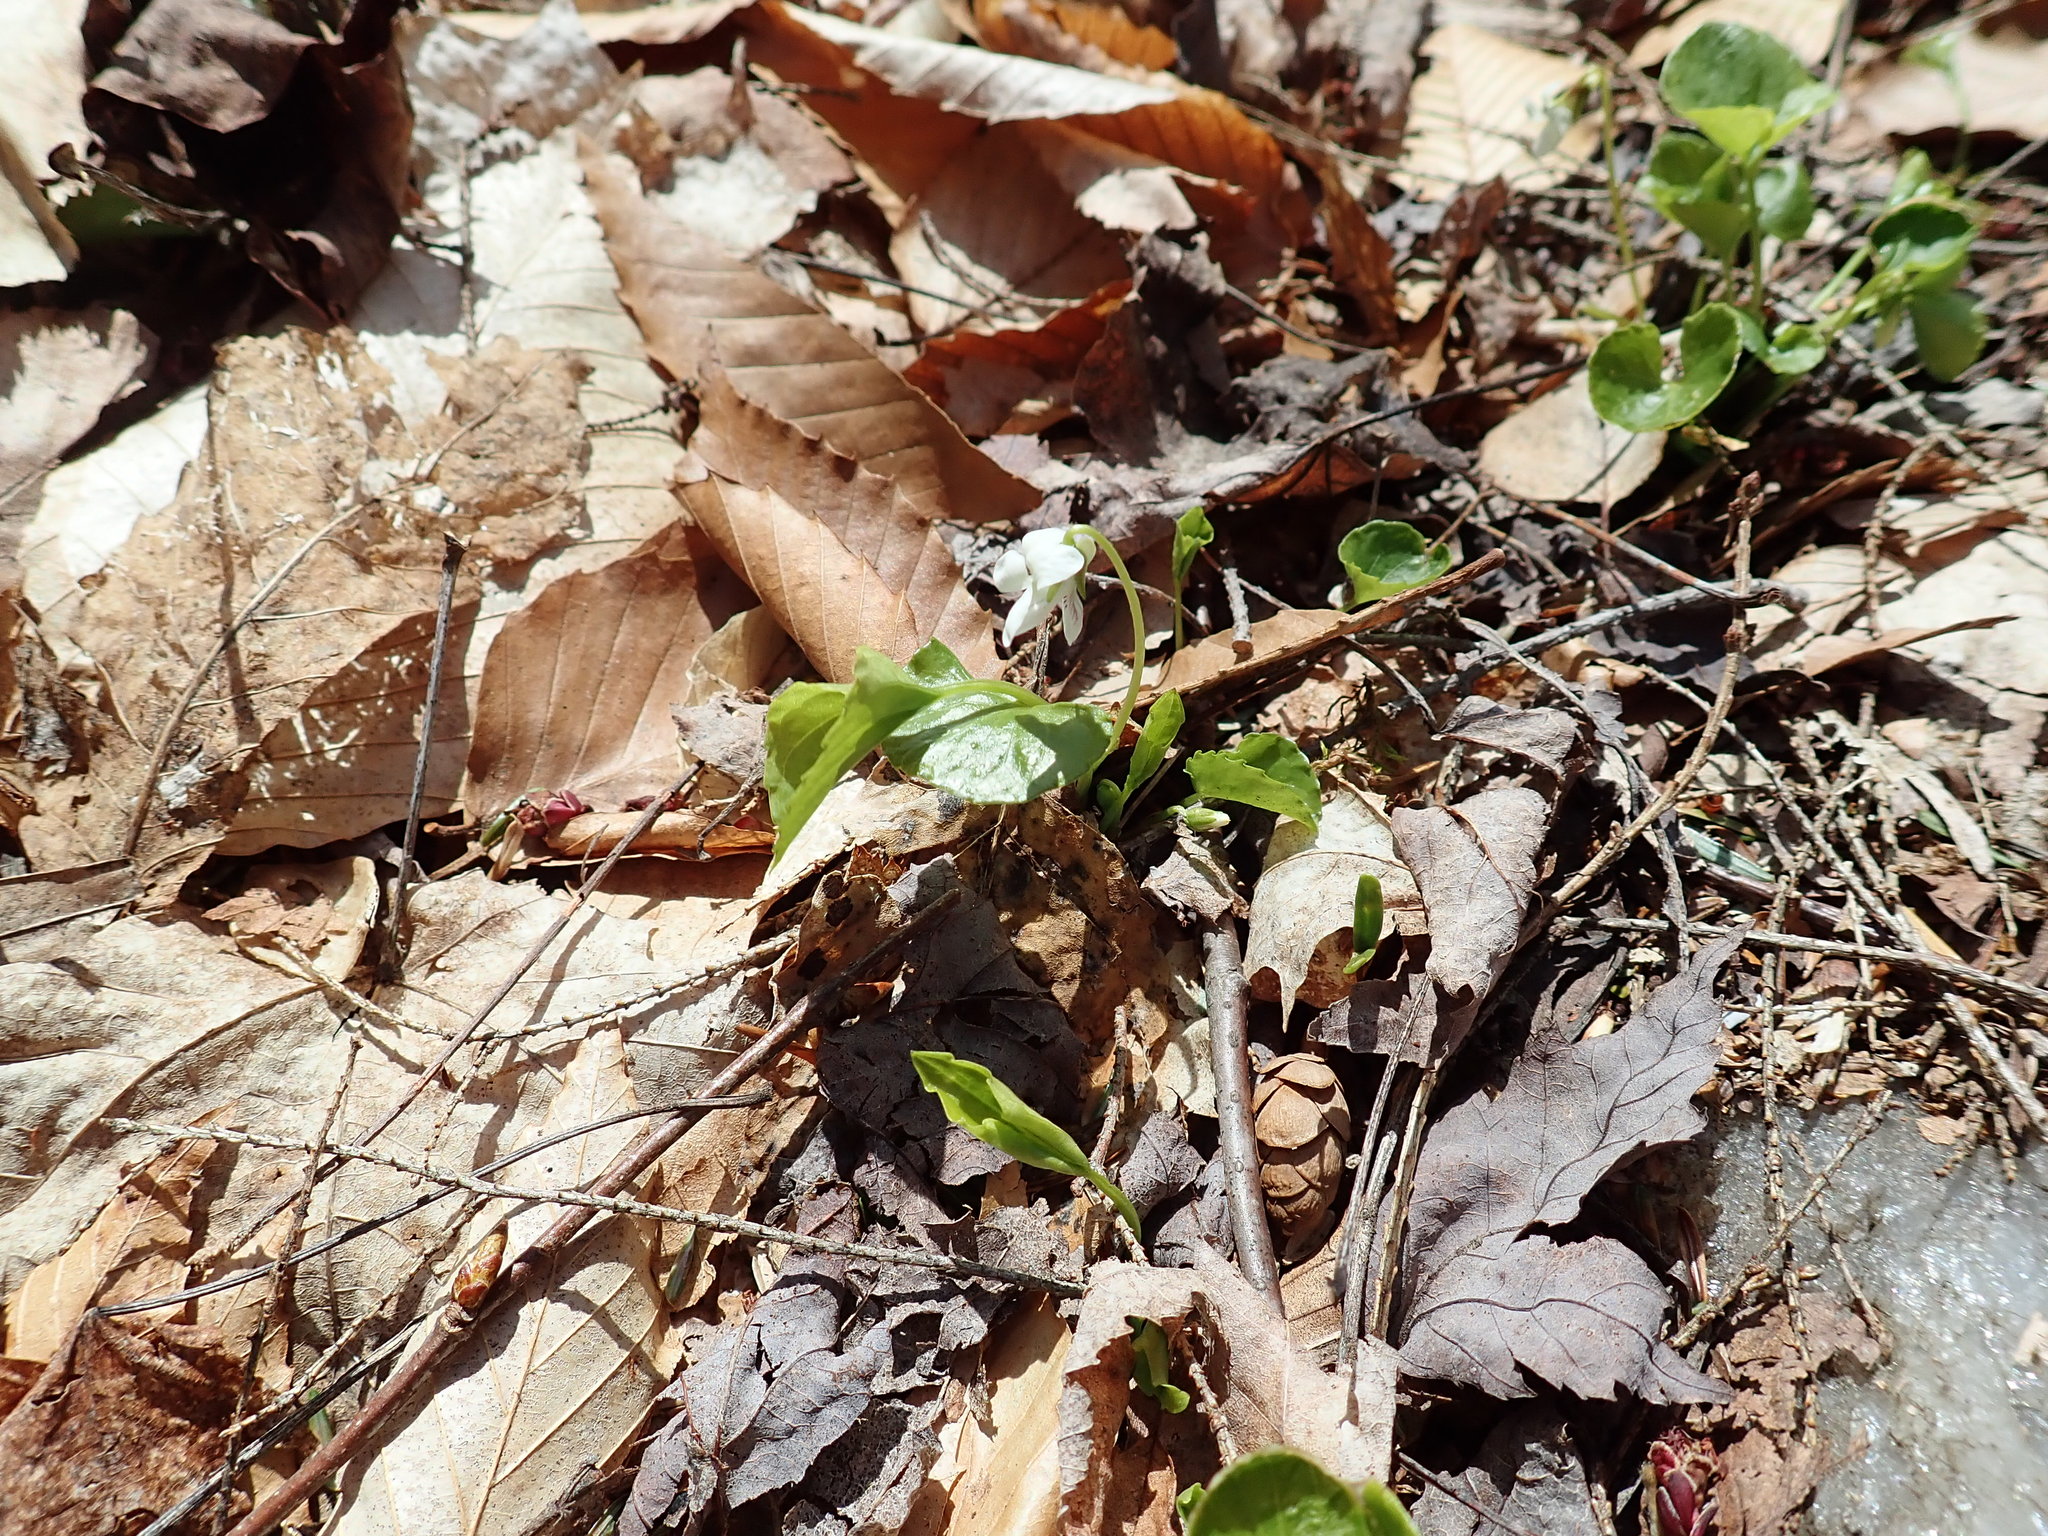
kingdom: Plantae
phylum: Tracheophyta
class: Magnoliopsida
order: Malpighiales
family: Violaceae
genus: Viola
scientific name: Viola
